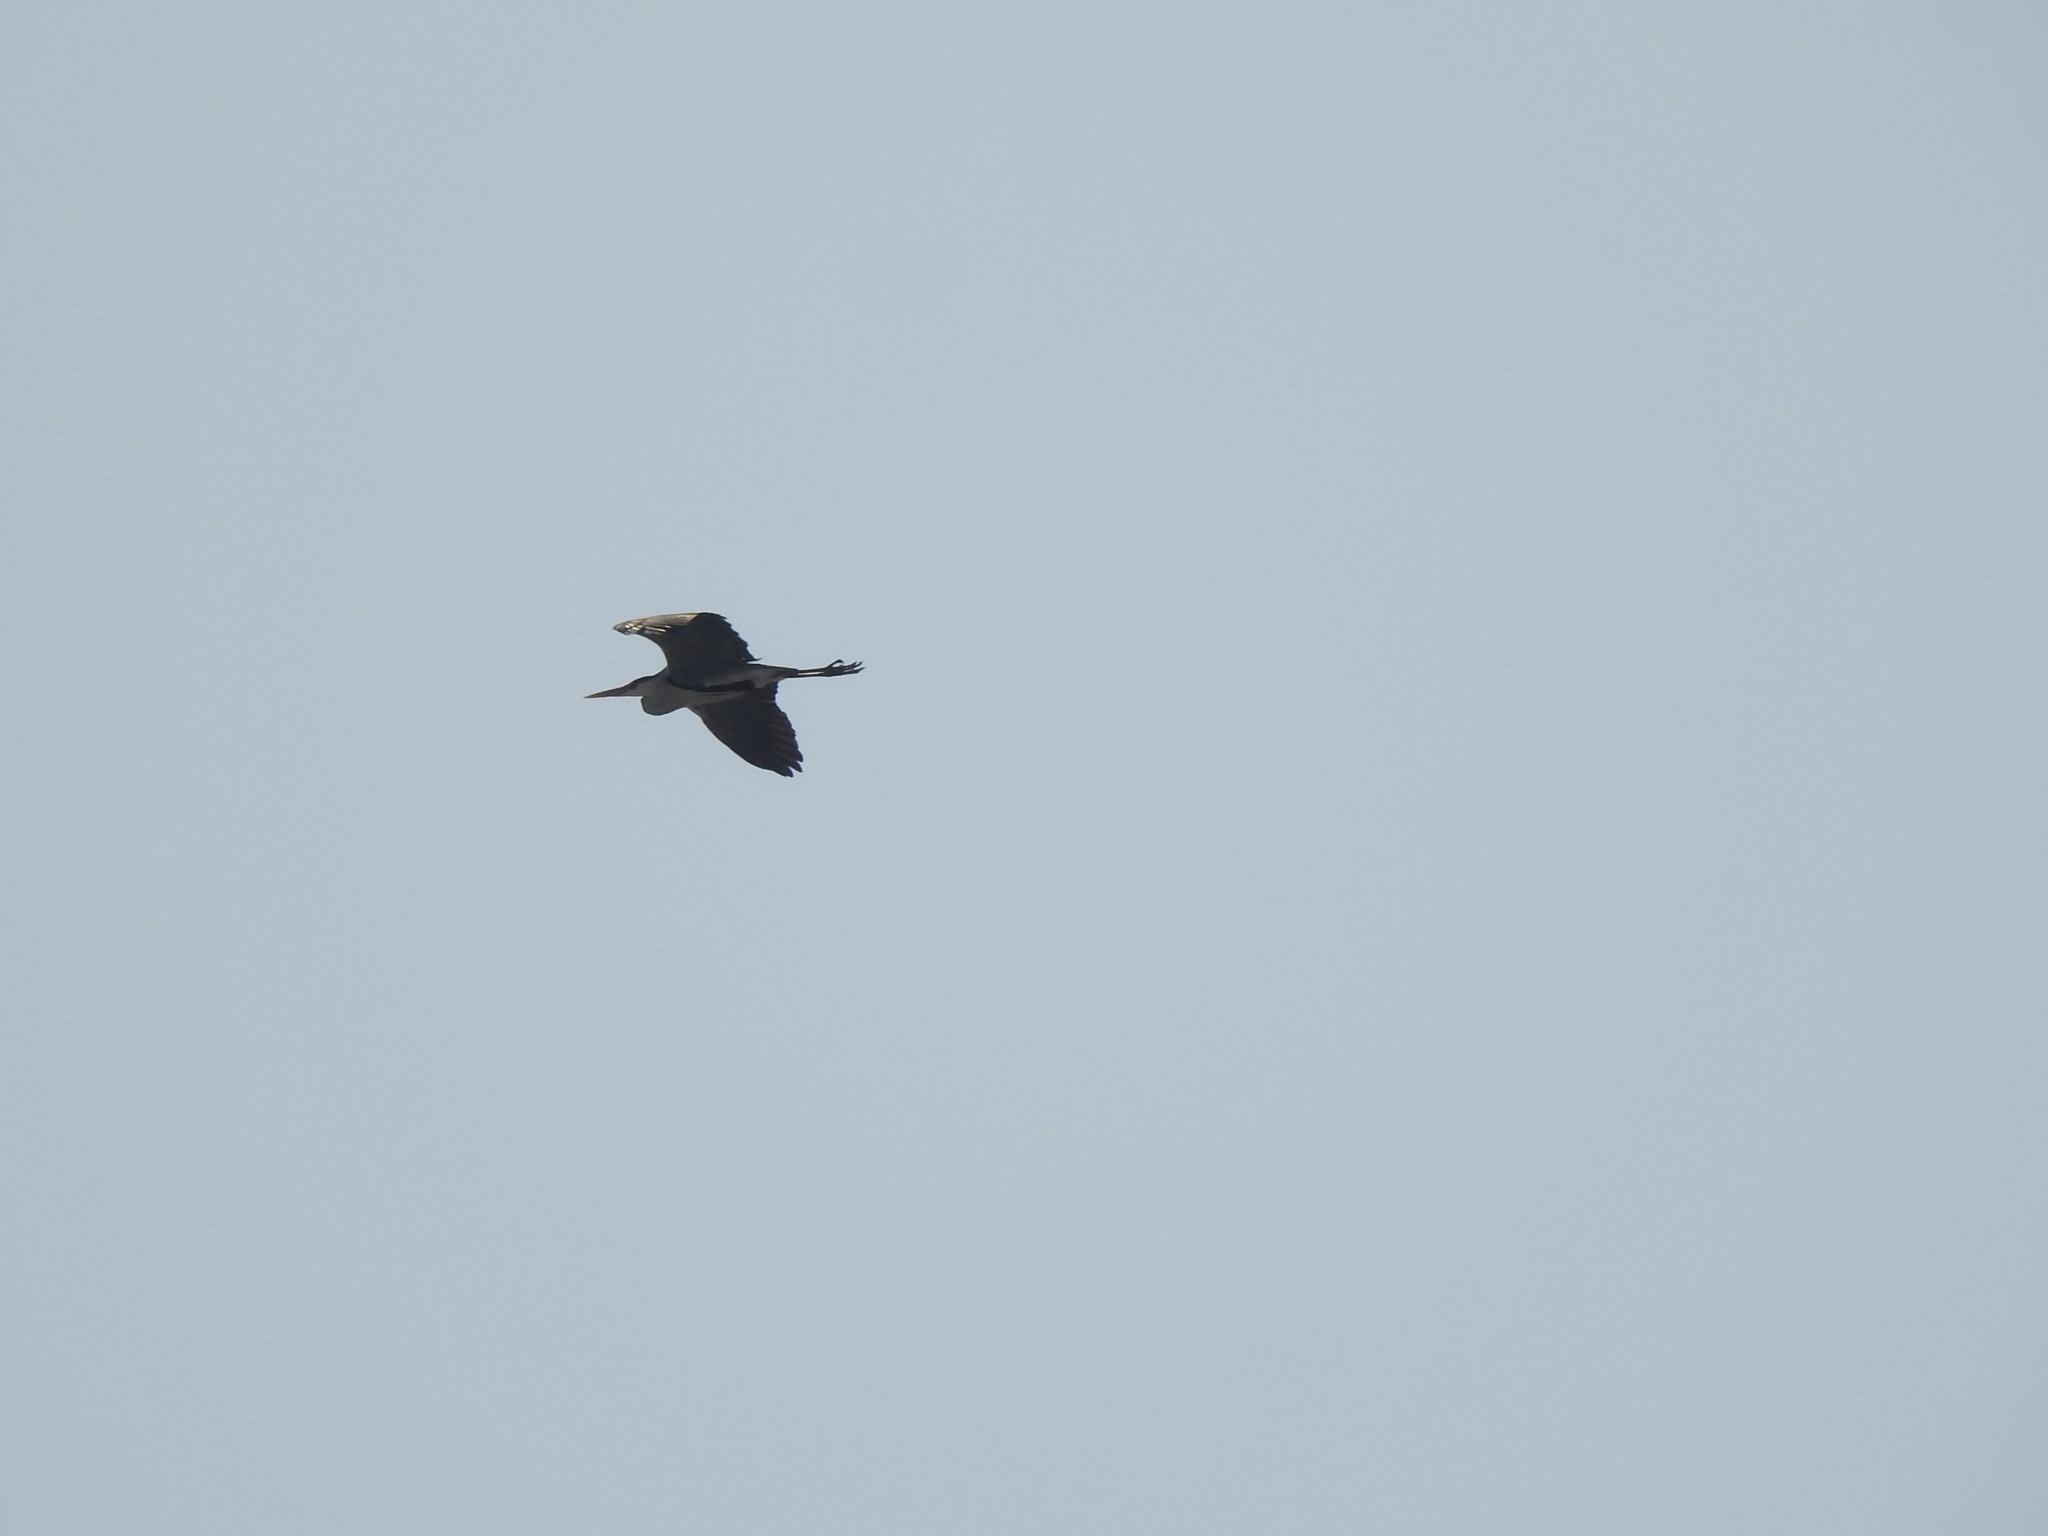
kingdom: Animalia
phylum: Chordata
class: Aves
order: Pelecaniformes
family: Ardeidae
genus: Ardea
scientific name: Ardea cinerea
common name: Grey heron
